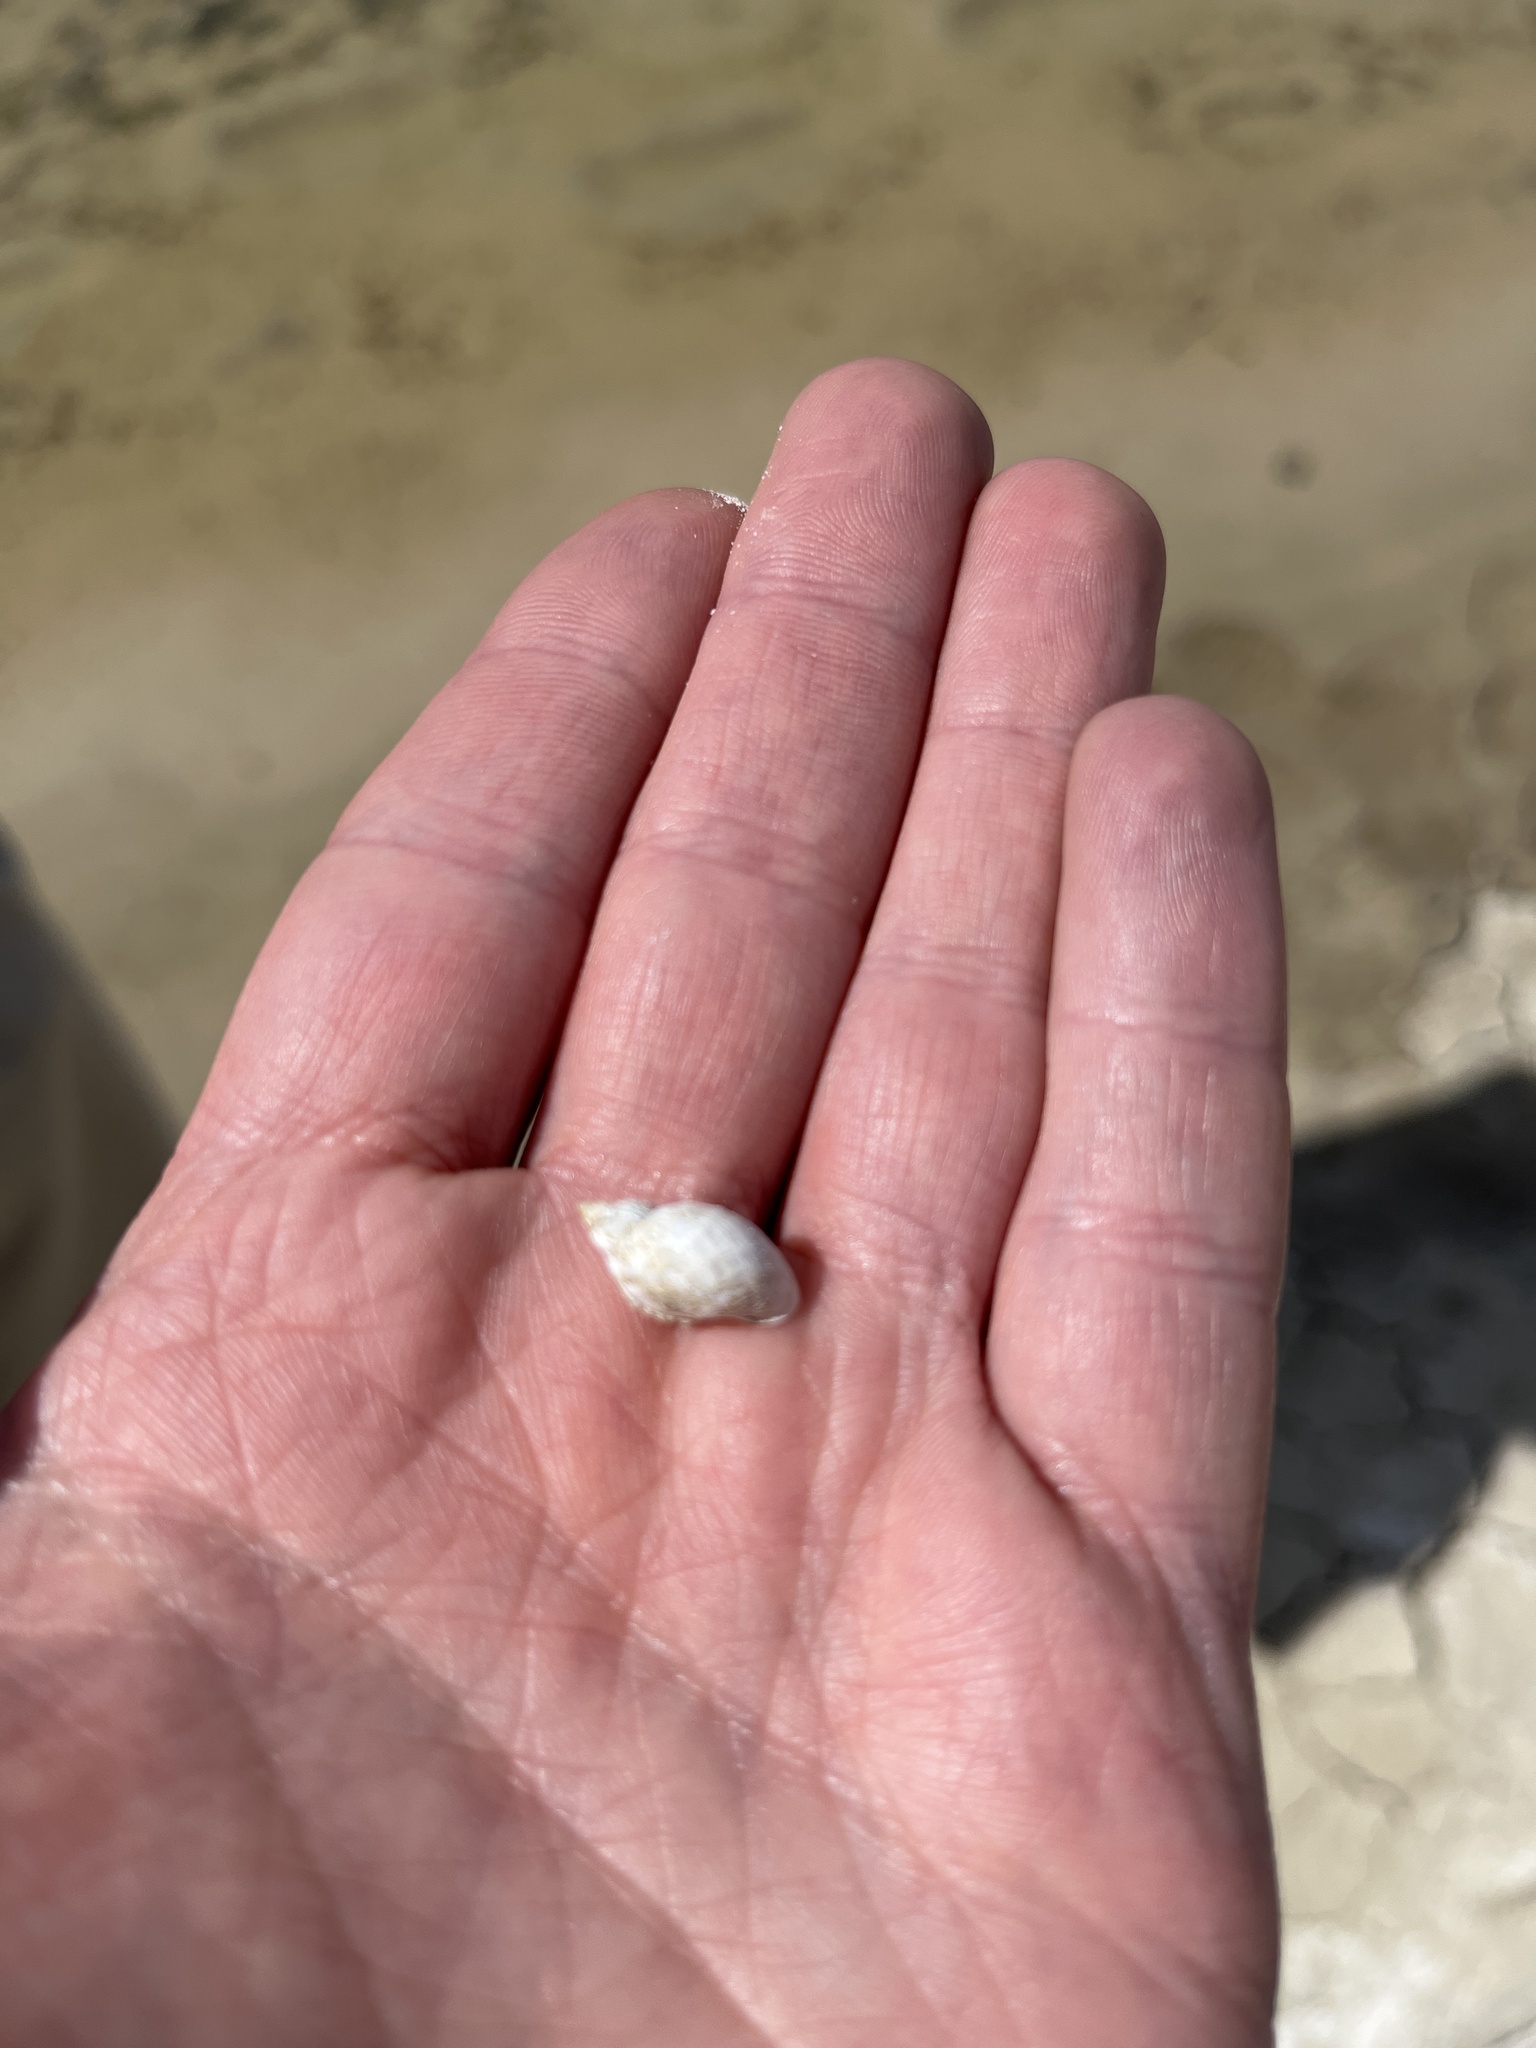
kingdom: Animalia
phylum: Mollusca
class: Gastropoda
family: Physidae
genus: Physella
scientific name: Physella acuta
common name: European physa
